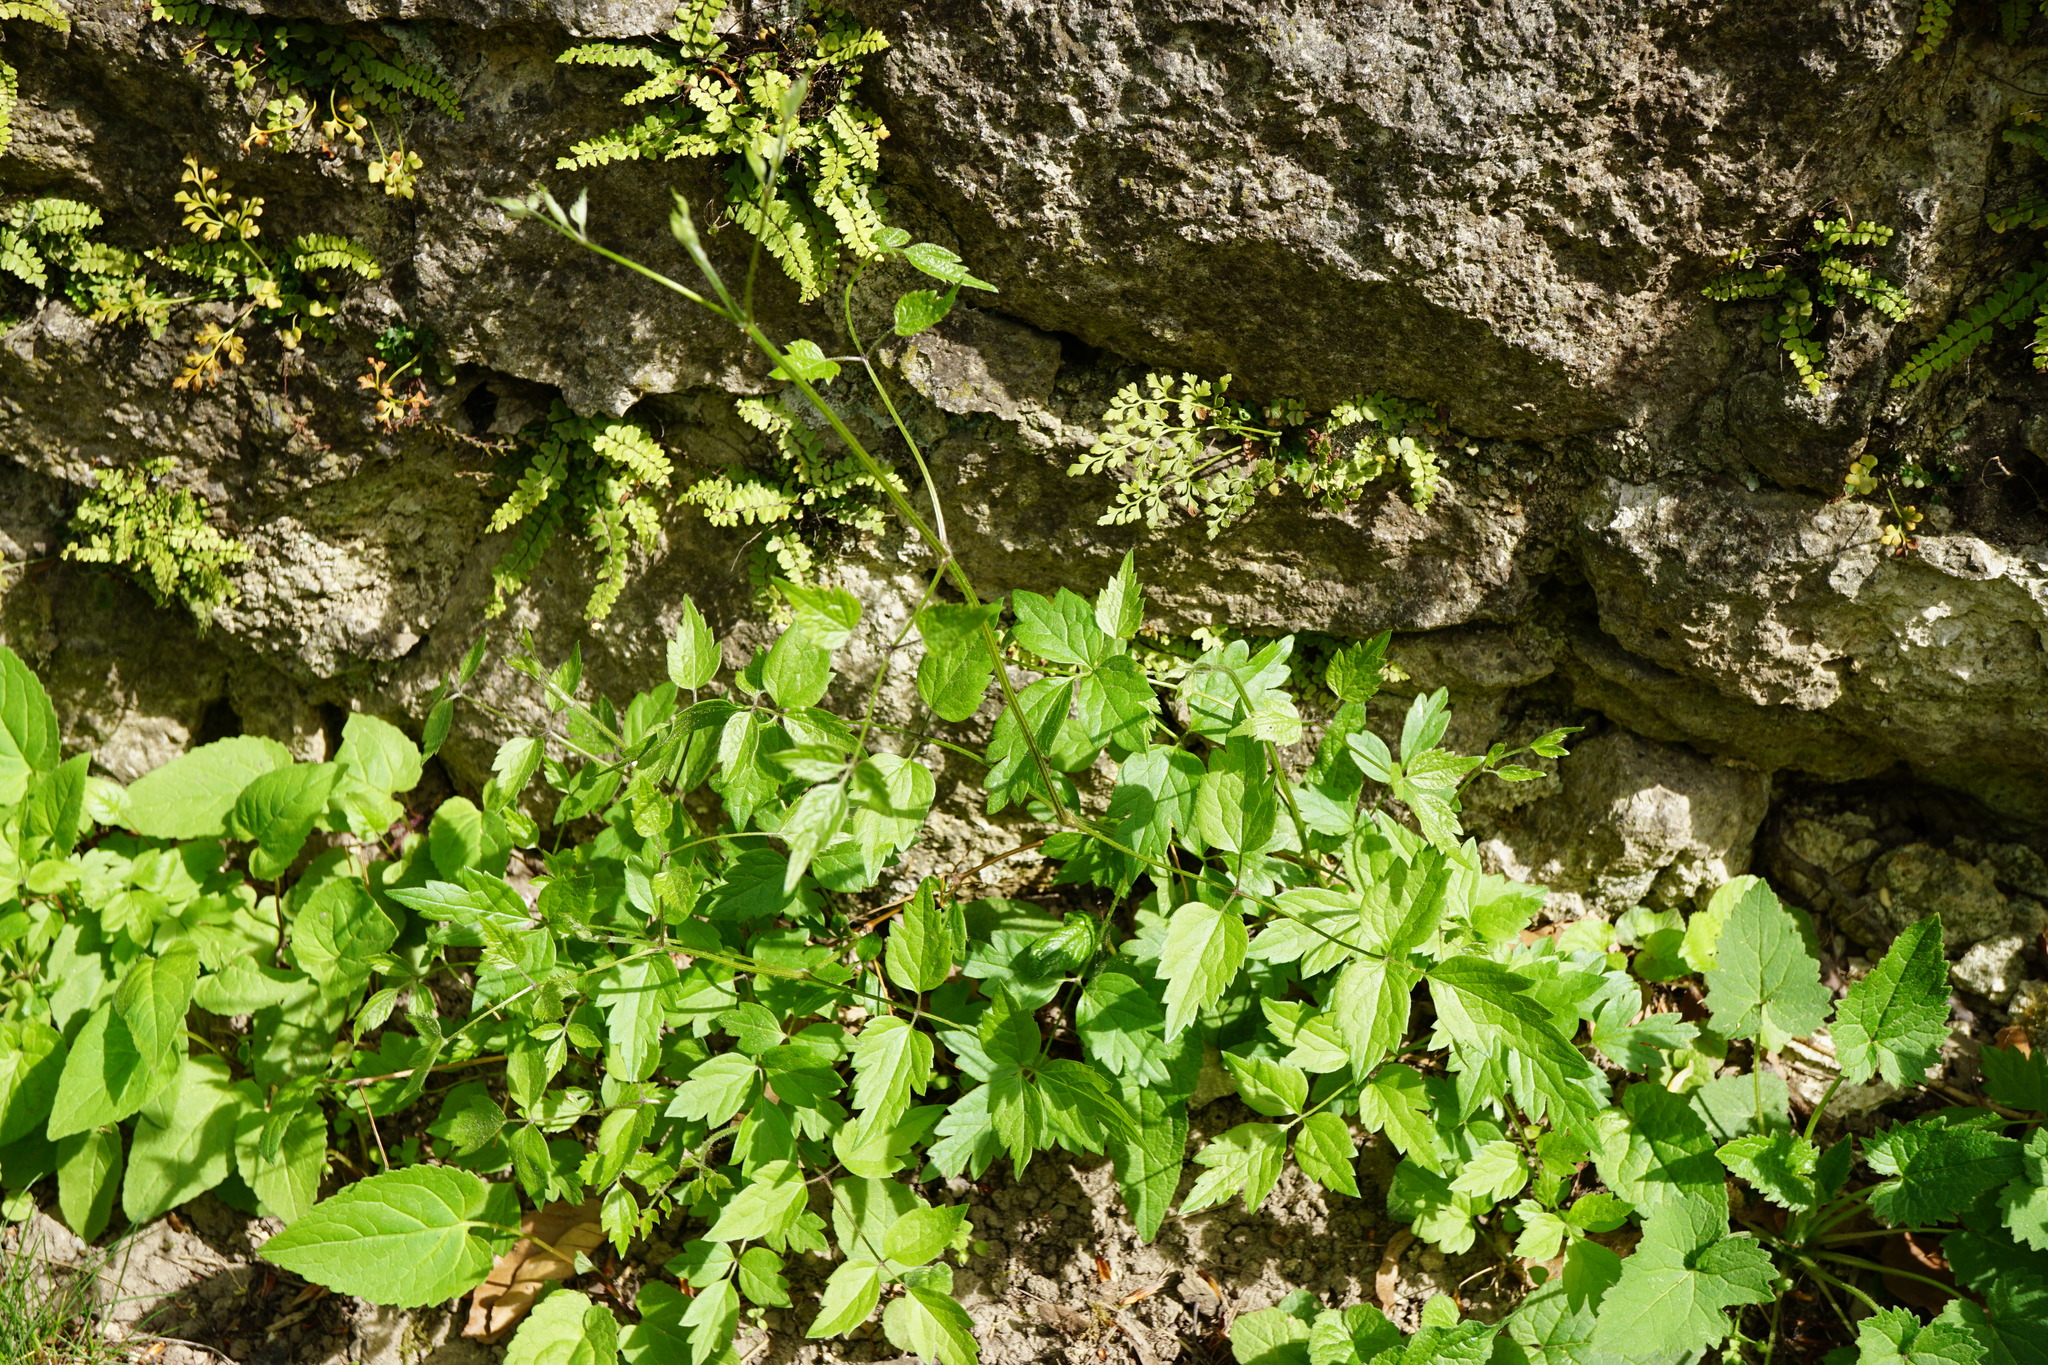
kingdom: Plantae
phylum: Tracheophyta
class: Magnoliopsida
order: Ranunculales
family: Ranunculaceae
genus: Clematis
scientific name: Clematis vitalba
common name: Evergreen clematis
